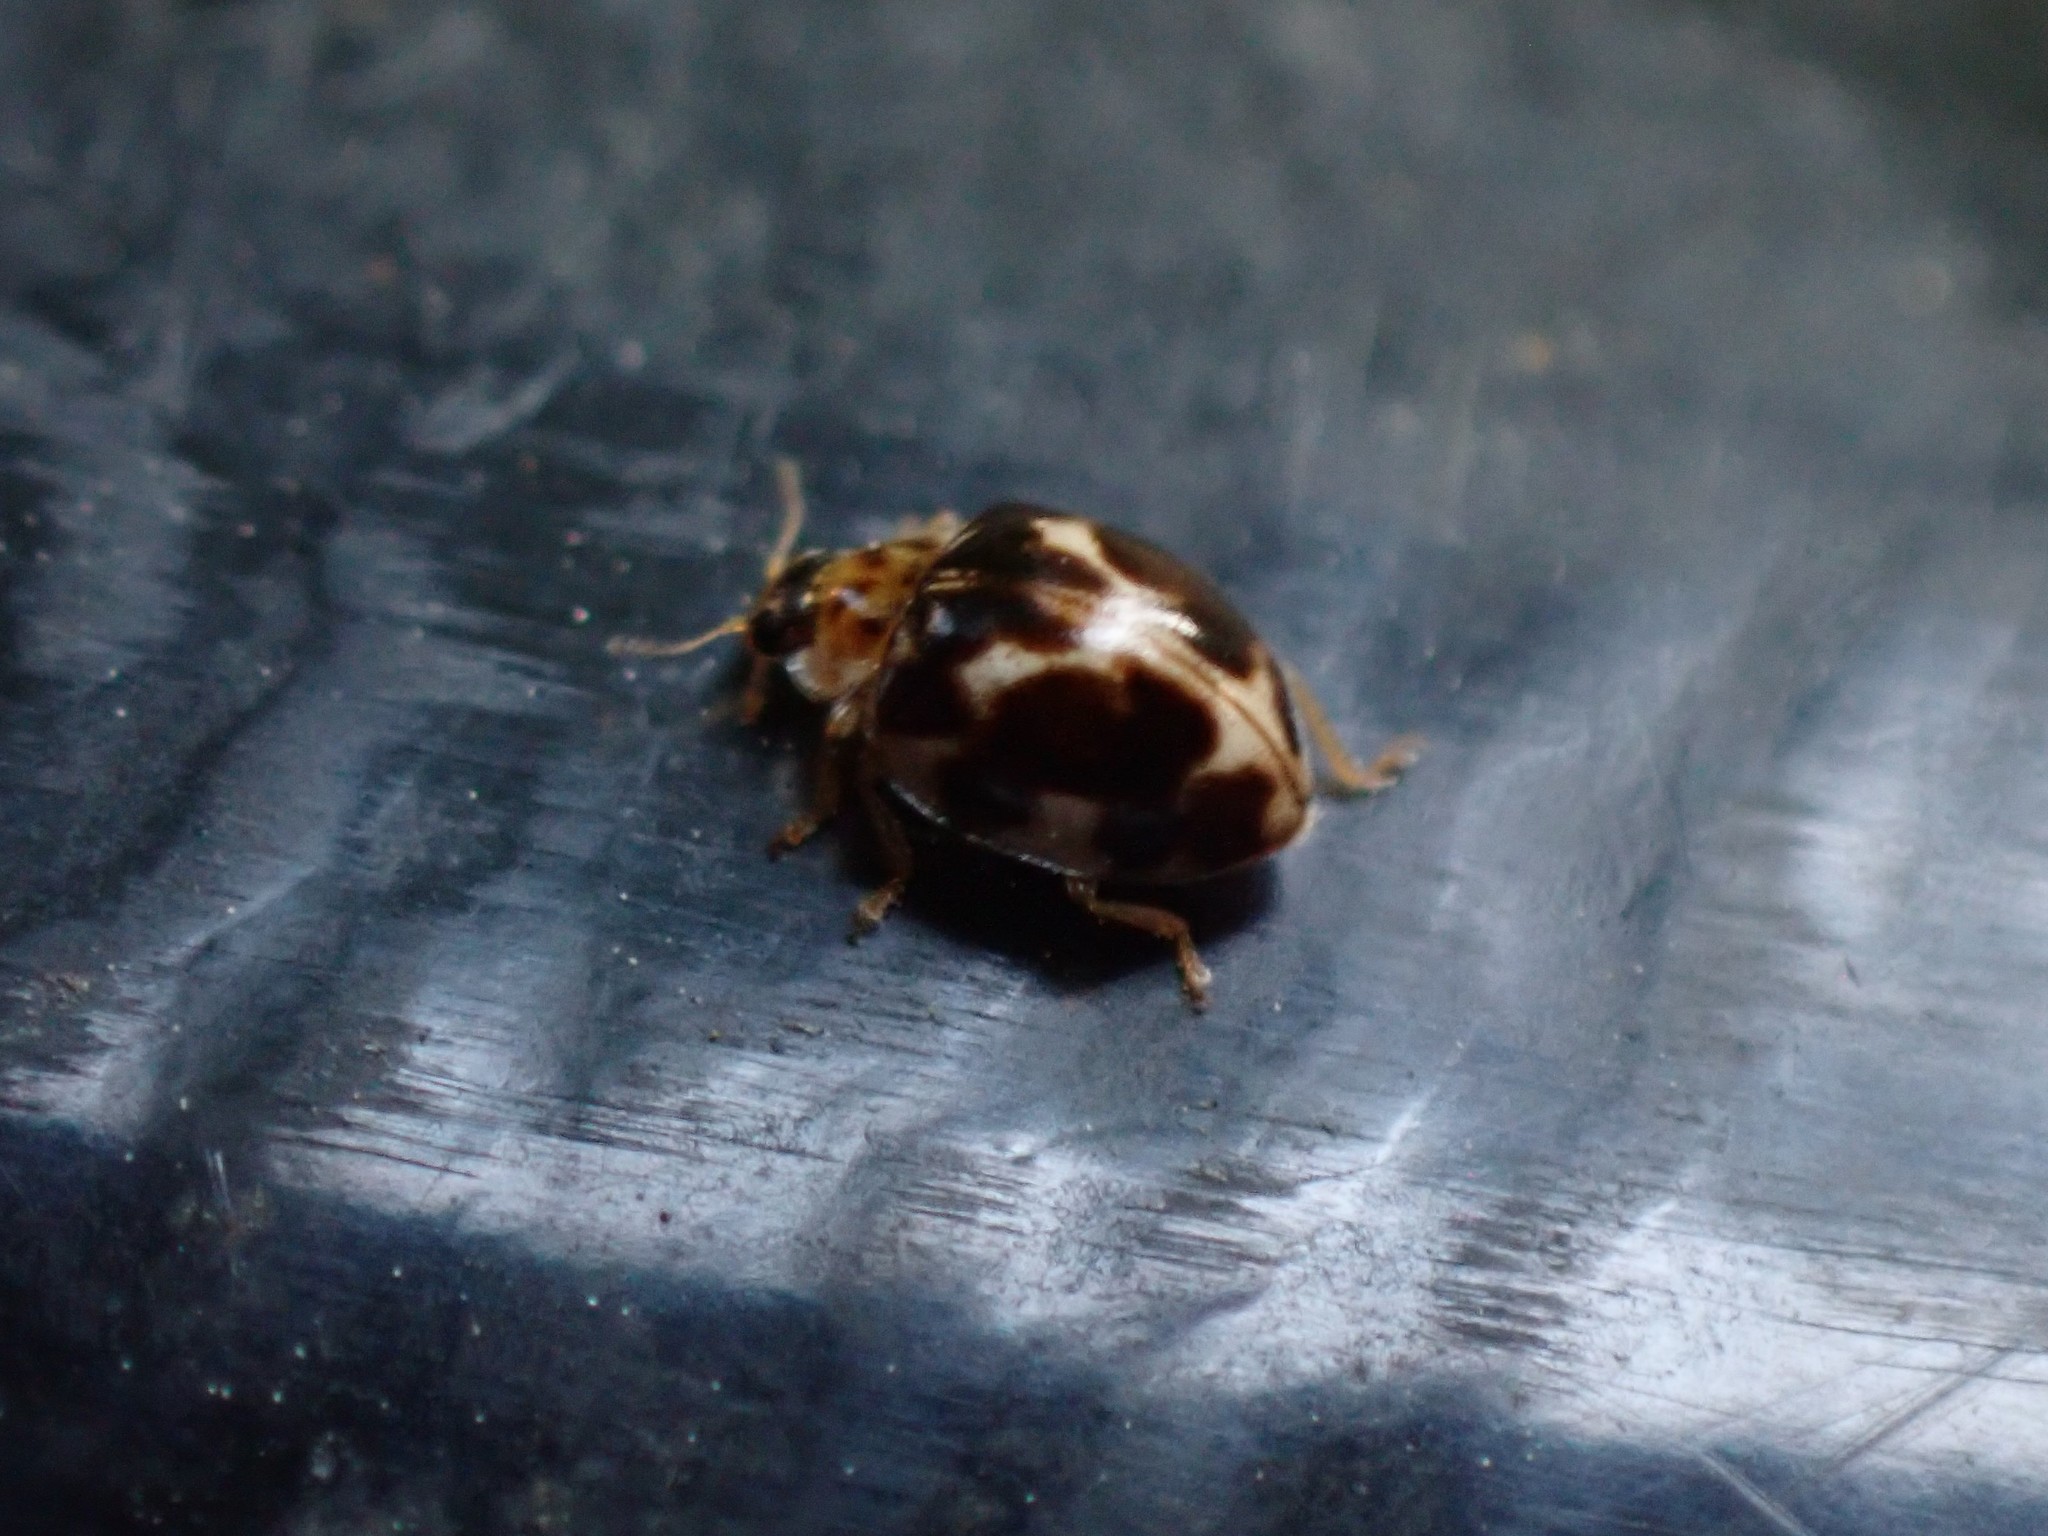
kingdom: Animalia
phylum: Arthropoda
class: Insecta
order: Coleoptera
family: Coccinellidae
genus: Psyllobora
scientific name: Psyllobora vigintimaculata
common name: Ladybird beetle
